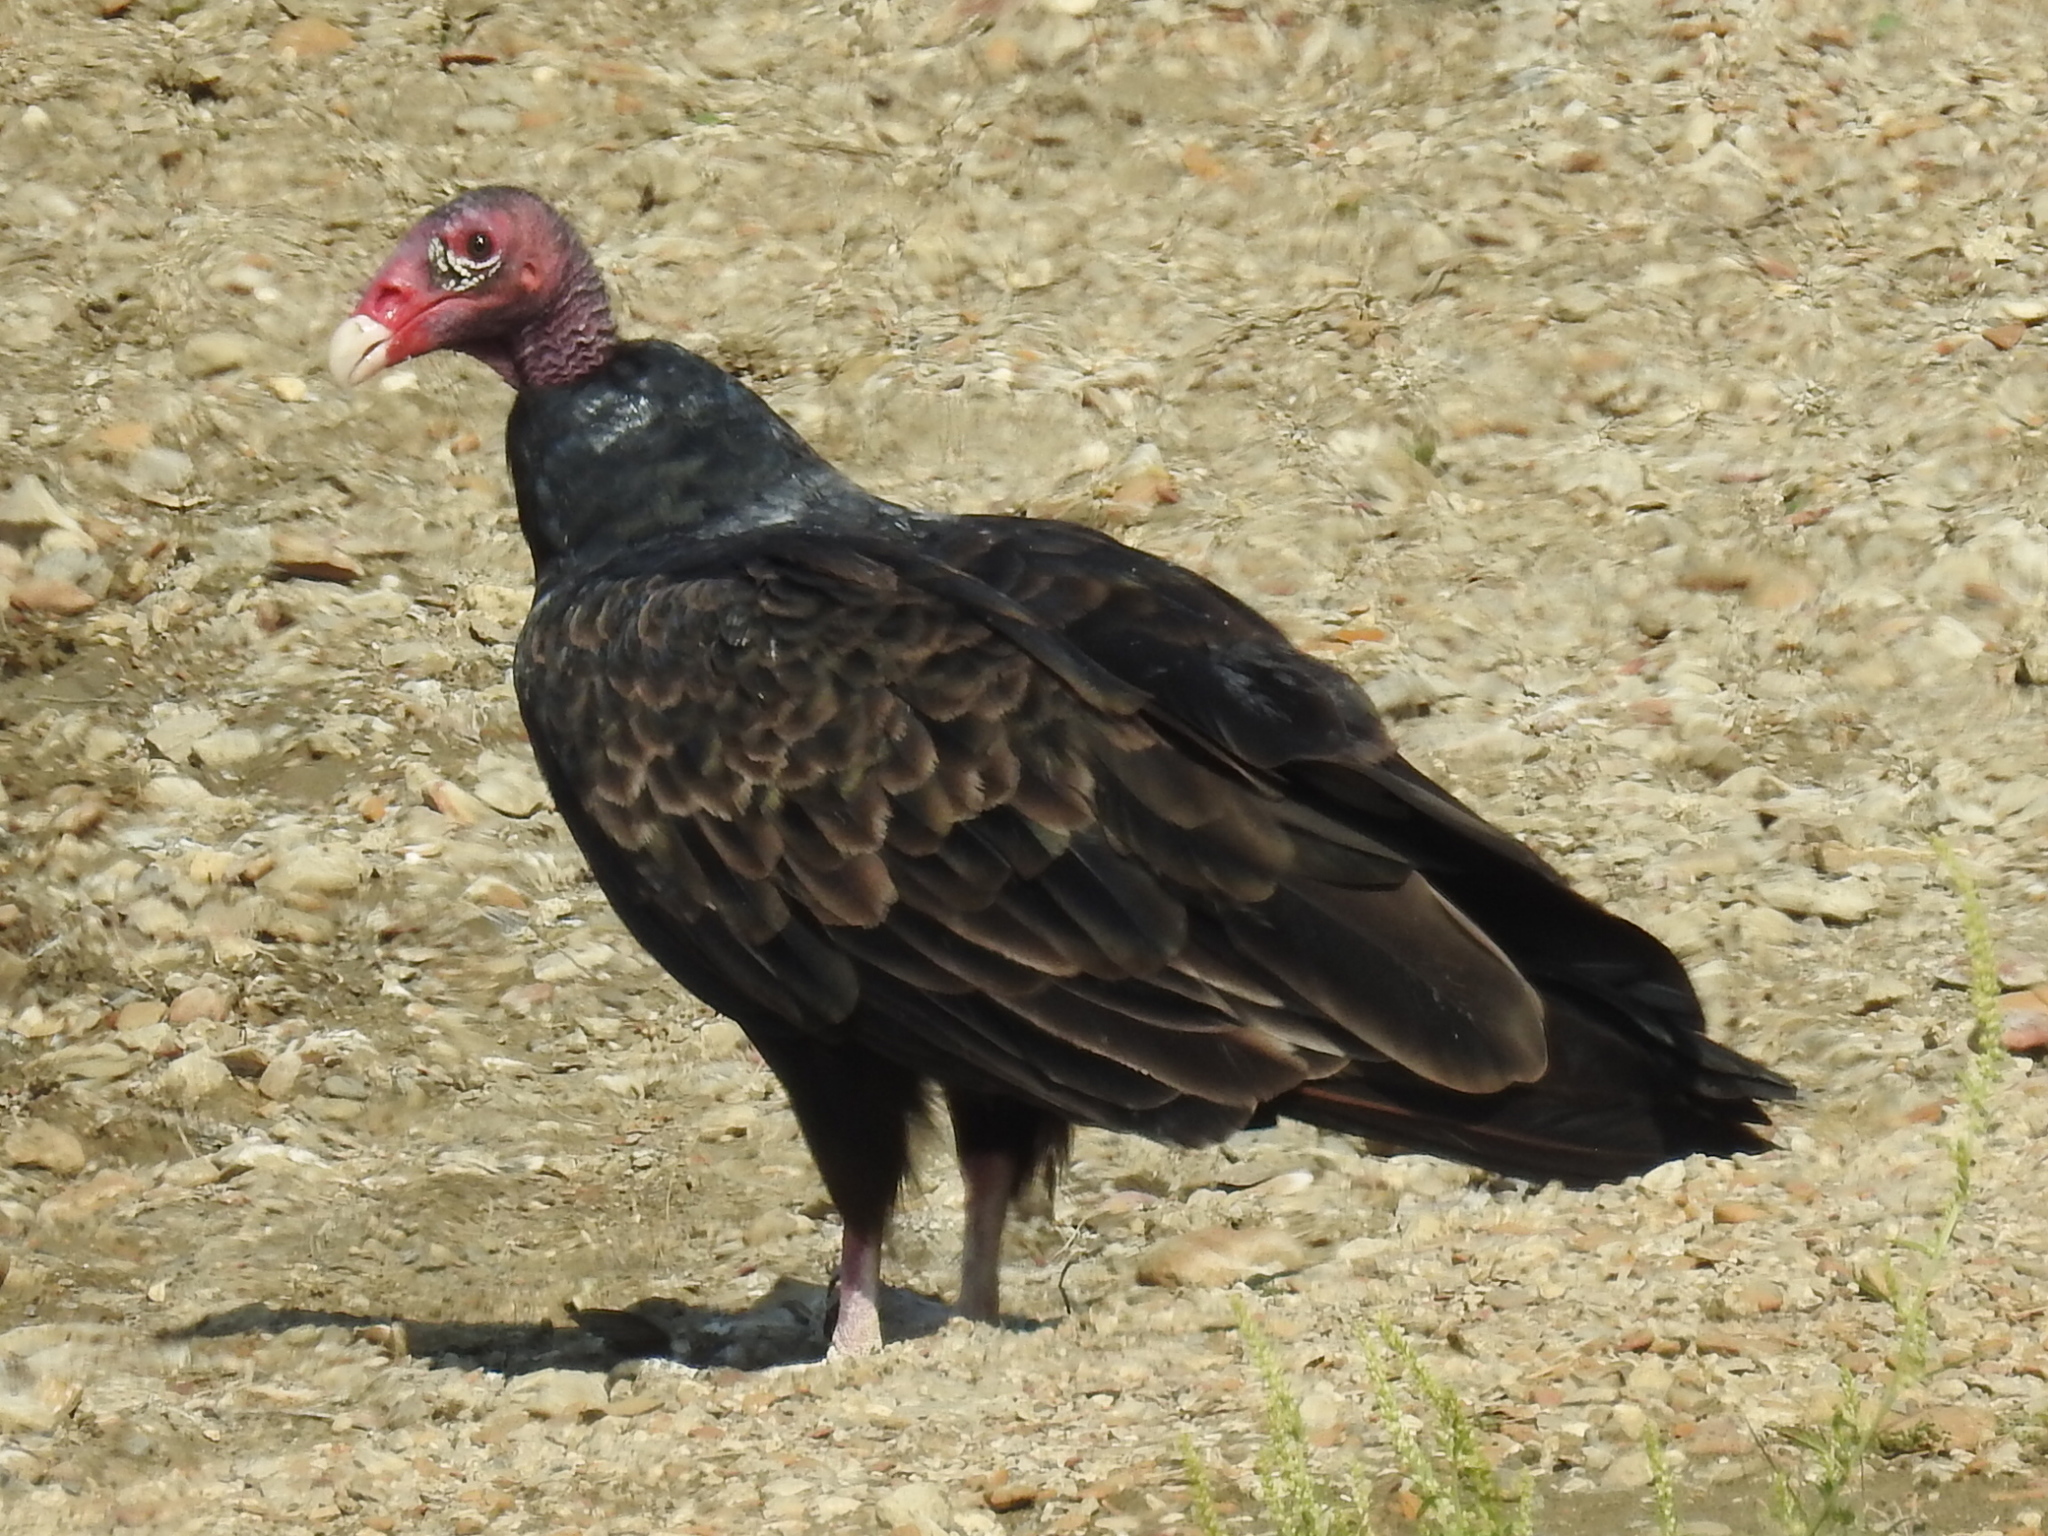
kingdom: Animalia
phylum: Chordata
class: Aves
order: Accipitriformes
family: Cathartidae
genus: Cathartes
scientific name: Cathartes aura
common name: Turkey vulture
